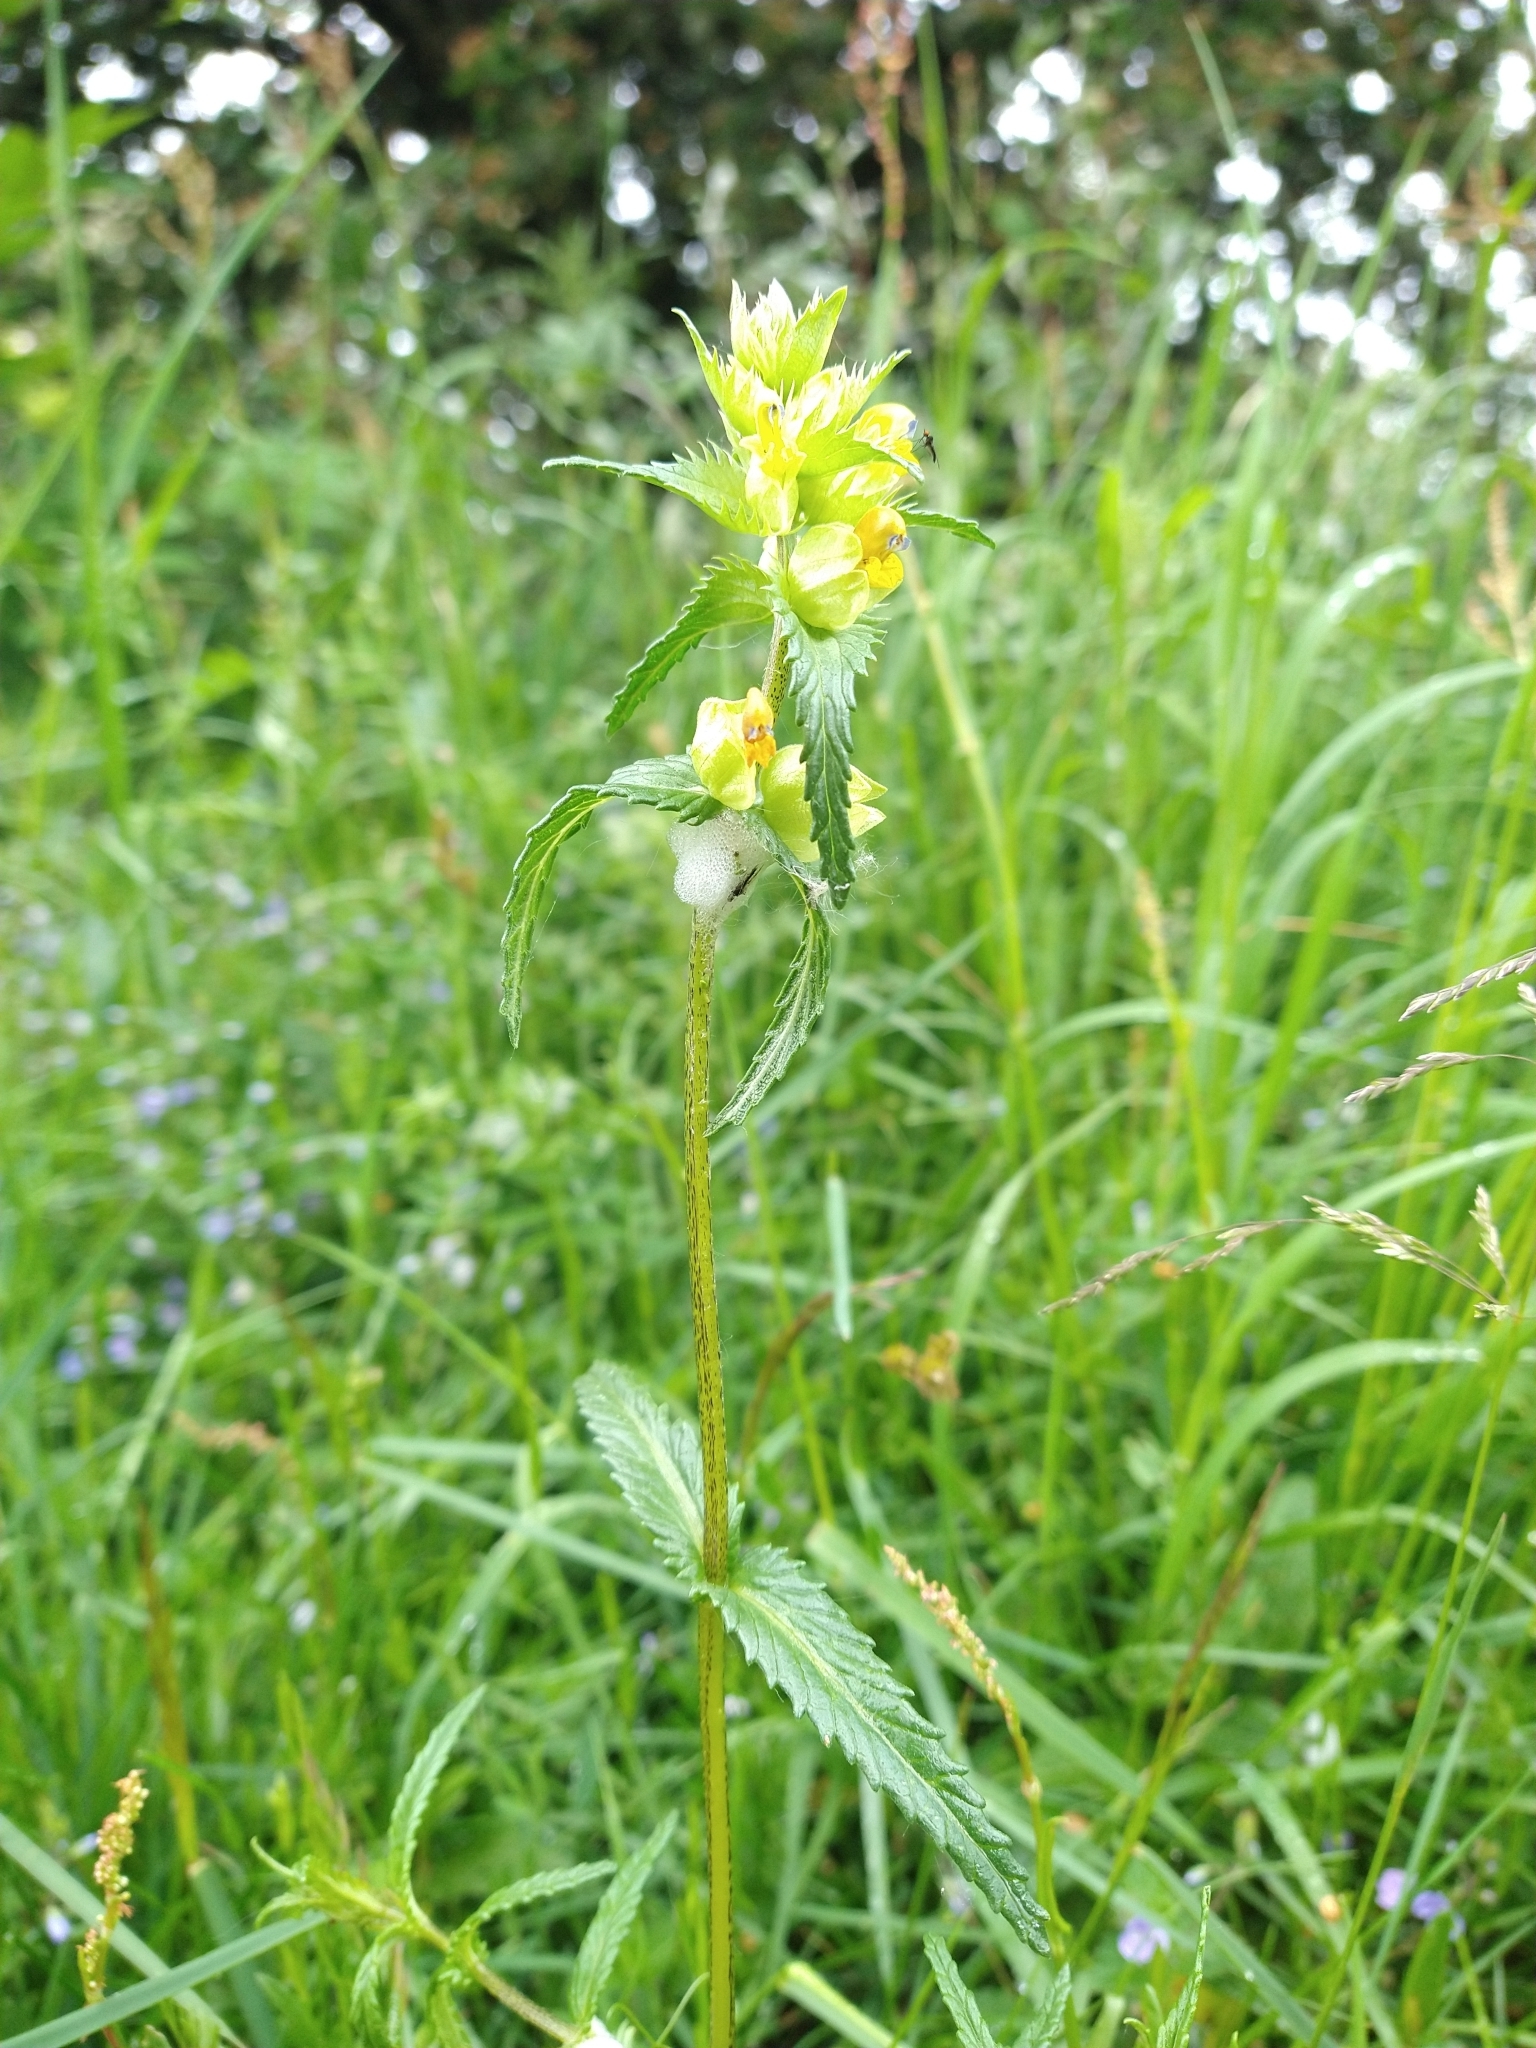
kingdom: Plantae
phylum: Tracheophyta
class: Magnoliopsida
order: Lamiales
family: Orobanchaceae
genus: Rhinanthus
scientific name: Rhinanthus minor
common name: Yellow-rattle
